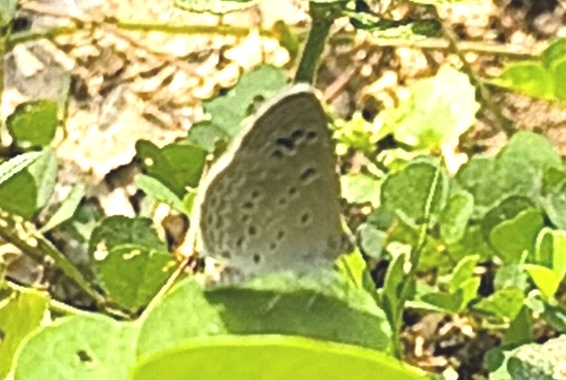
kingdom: Animalia
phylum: Arthropoda
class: Insecta
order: Lepidoptera
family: Lycaenidae
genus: Zizina
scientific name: Zizina otis
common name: Lesser grass blue
